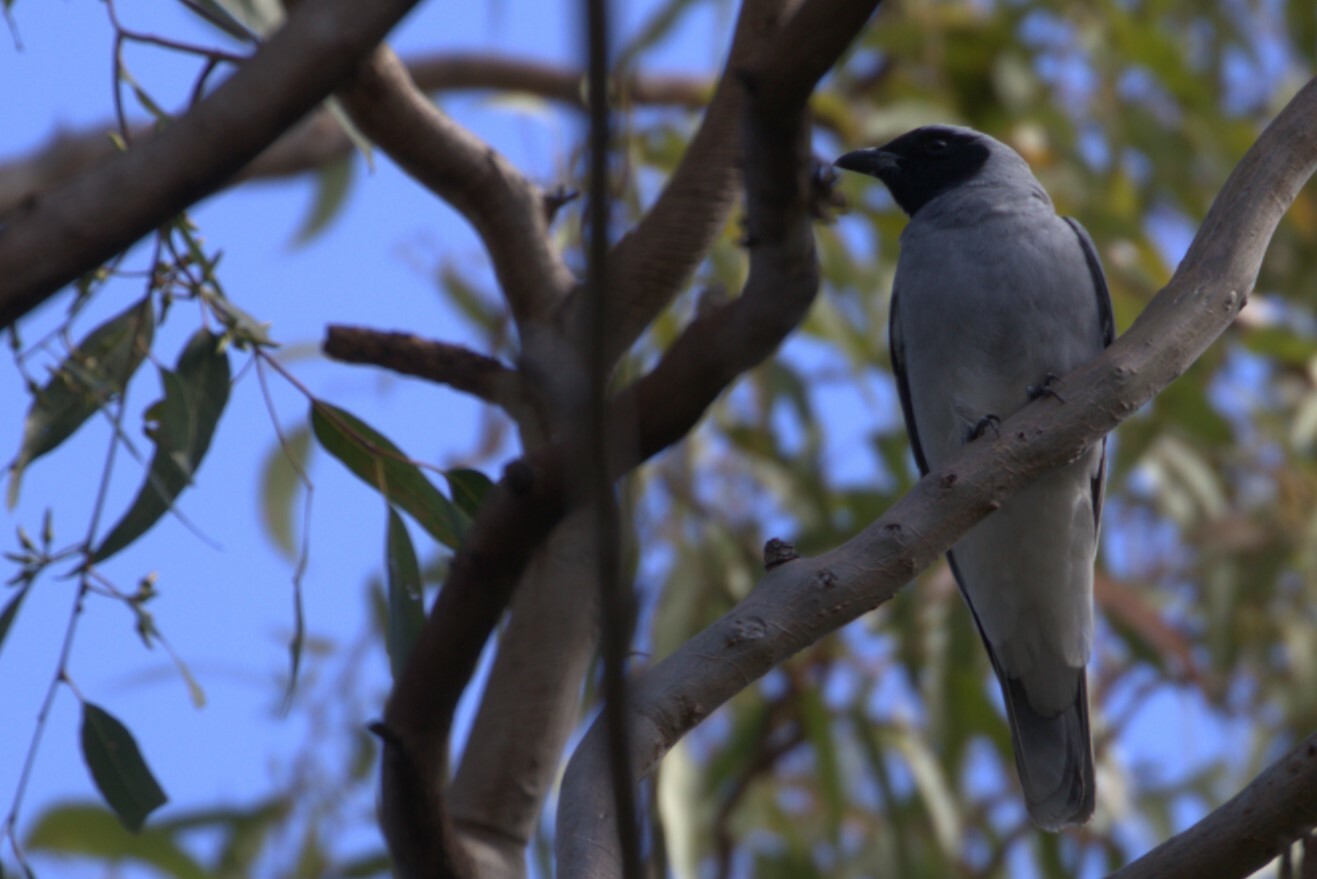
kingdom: Animalia
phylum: Chordata
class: Aves
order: Passeriformes
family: Campephagidae
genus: Coracina
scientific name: Coracina novaehollandiae
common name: Black-faced cuckooshrike
